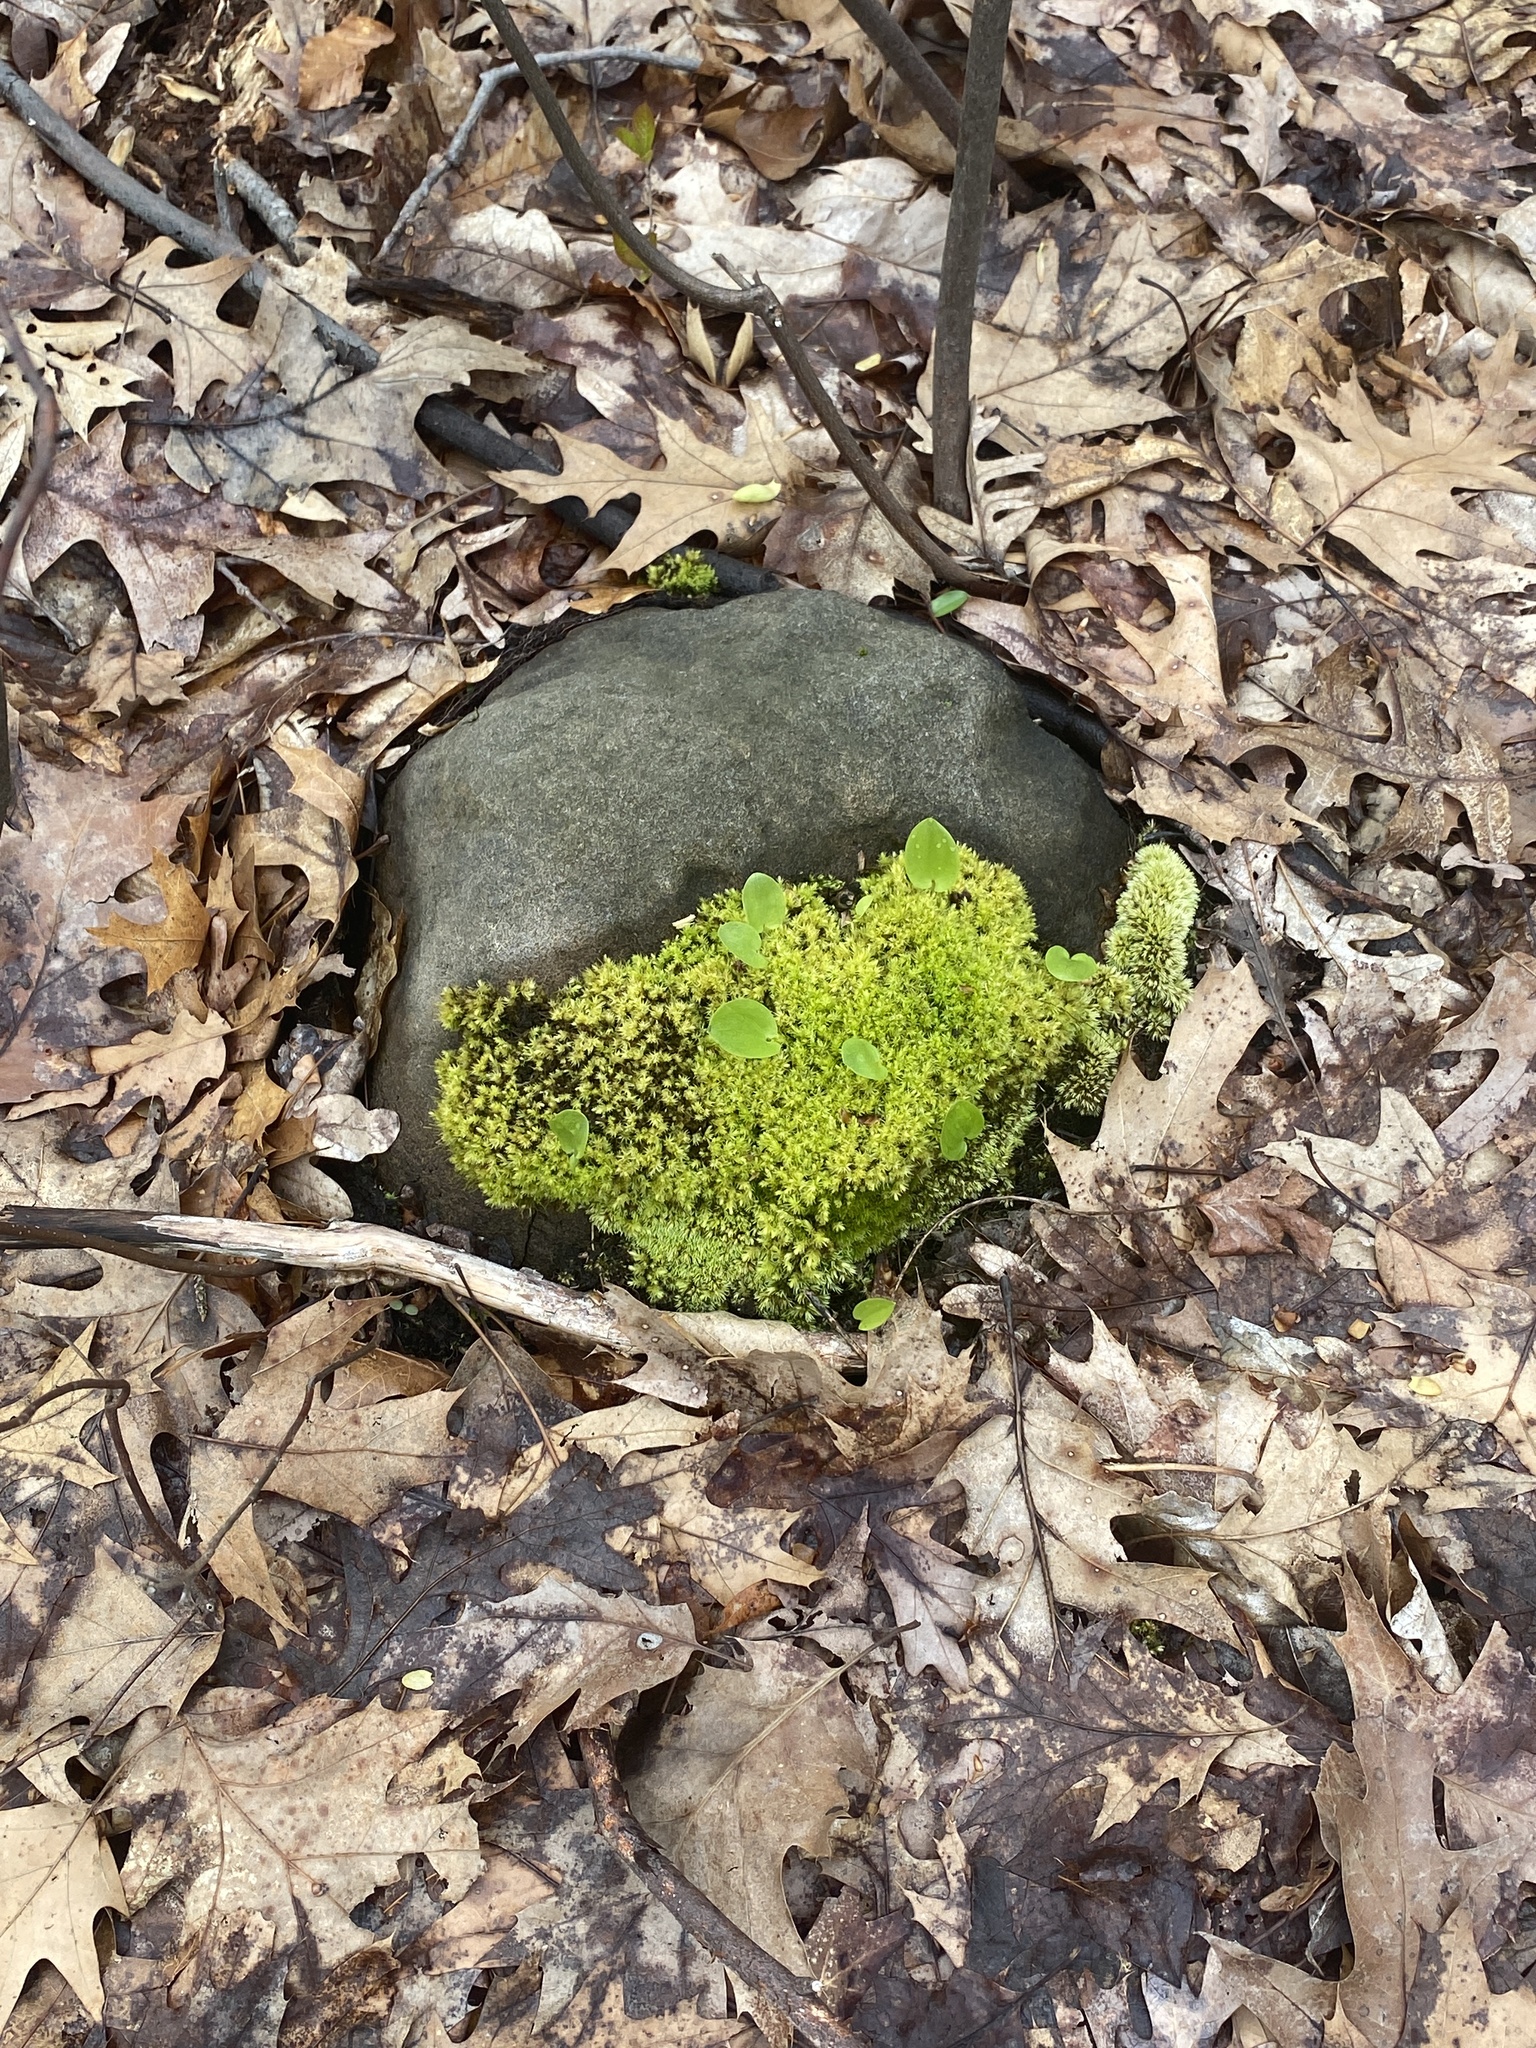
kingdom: Plantae
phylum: Tracheophyta
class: Liliopsida
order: Asparagales
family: Asparagaceae
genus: Maianthemum
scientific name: Maianthemum canadense
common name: False lily-of-the-valley
